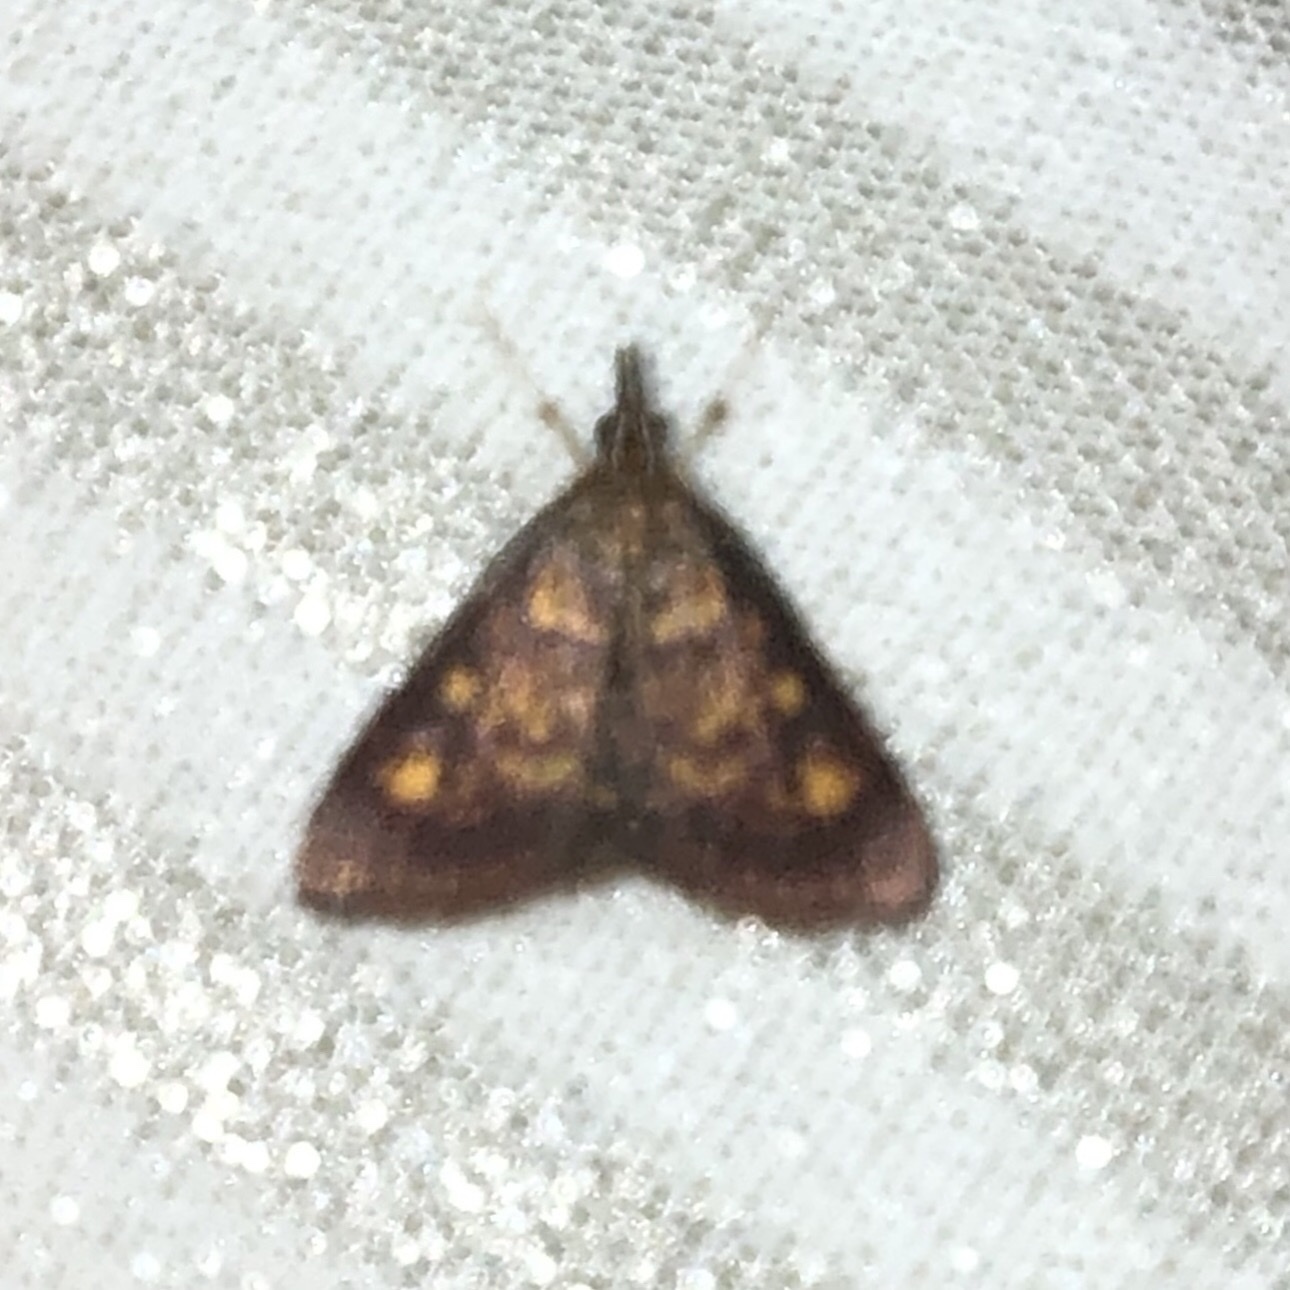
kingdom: Animalia
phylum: Arthropoda
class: Insecta
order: Lepidoptera
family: Crambidae
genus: Pyrausta
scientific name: Pyrausta acrionalis
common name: Mint-loving pyrausta moth
